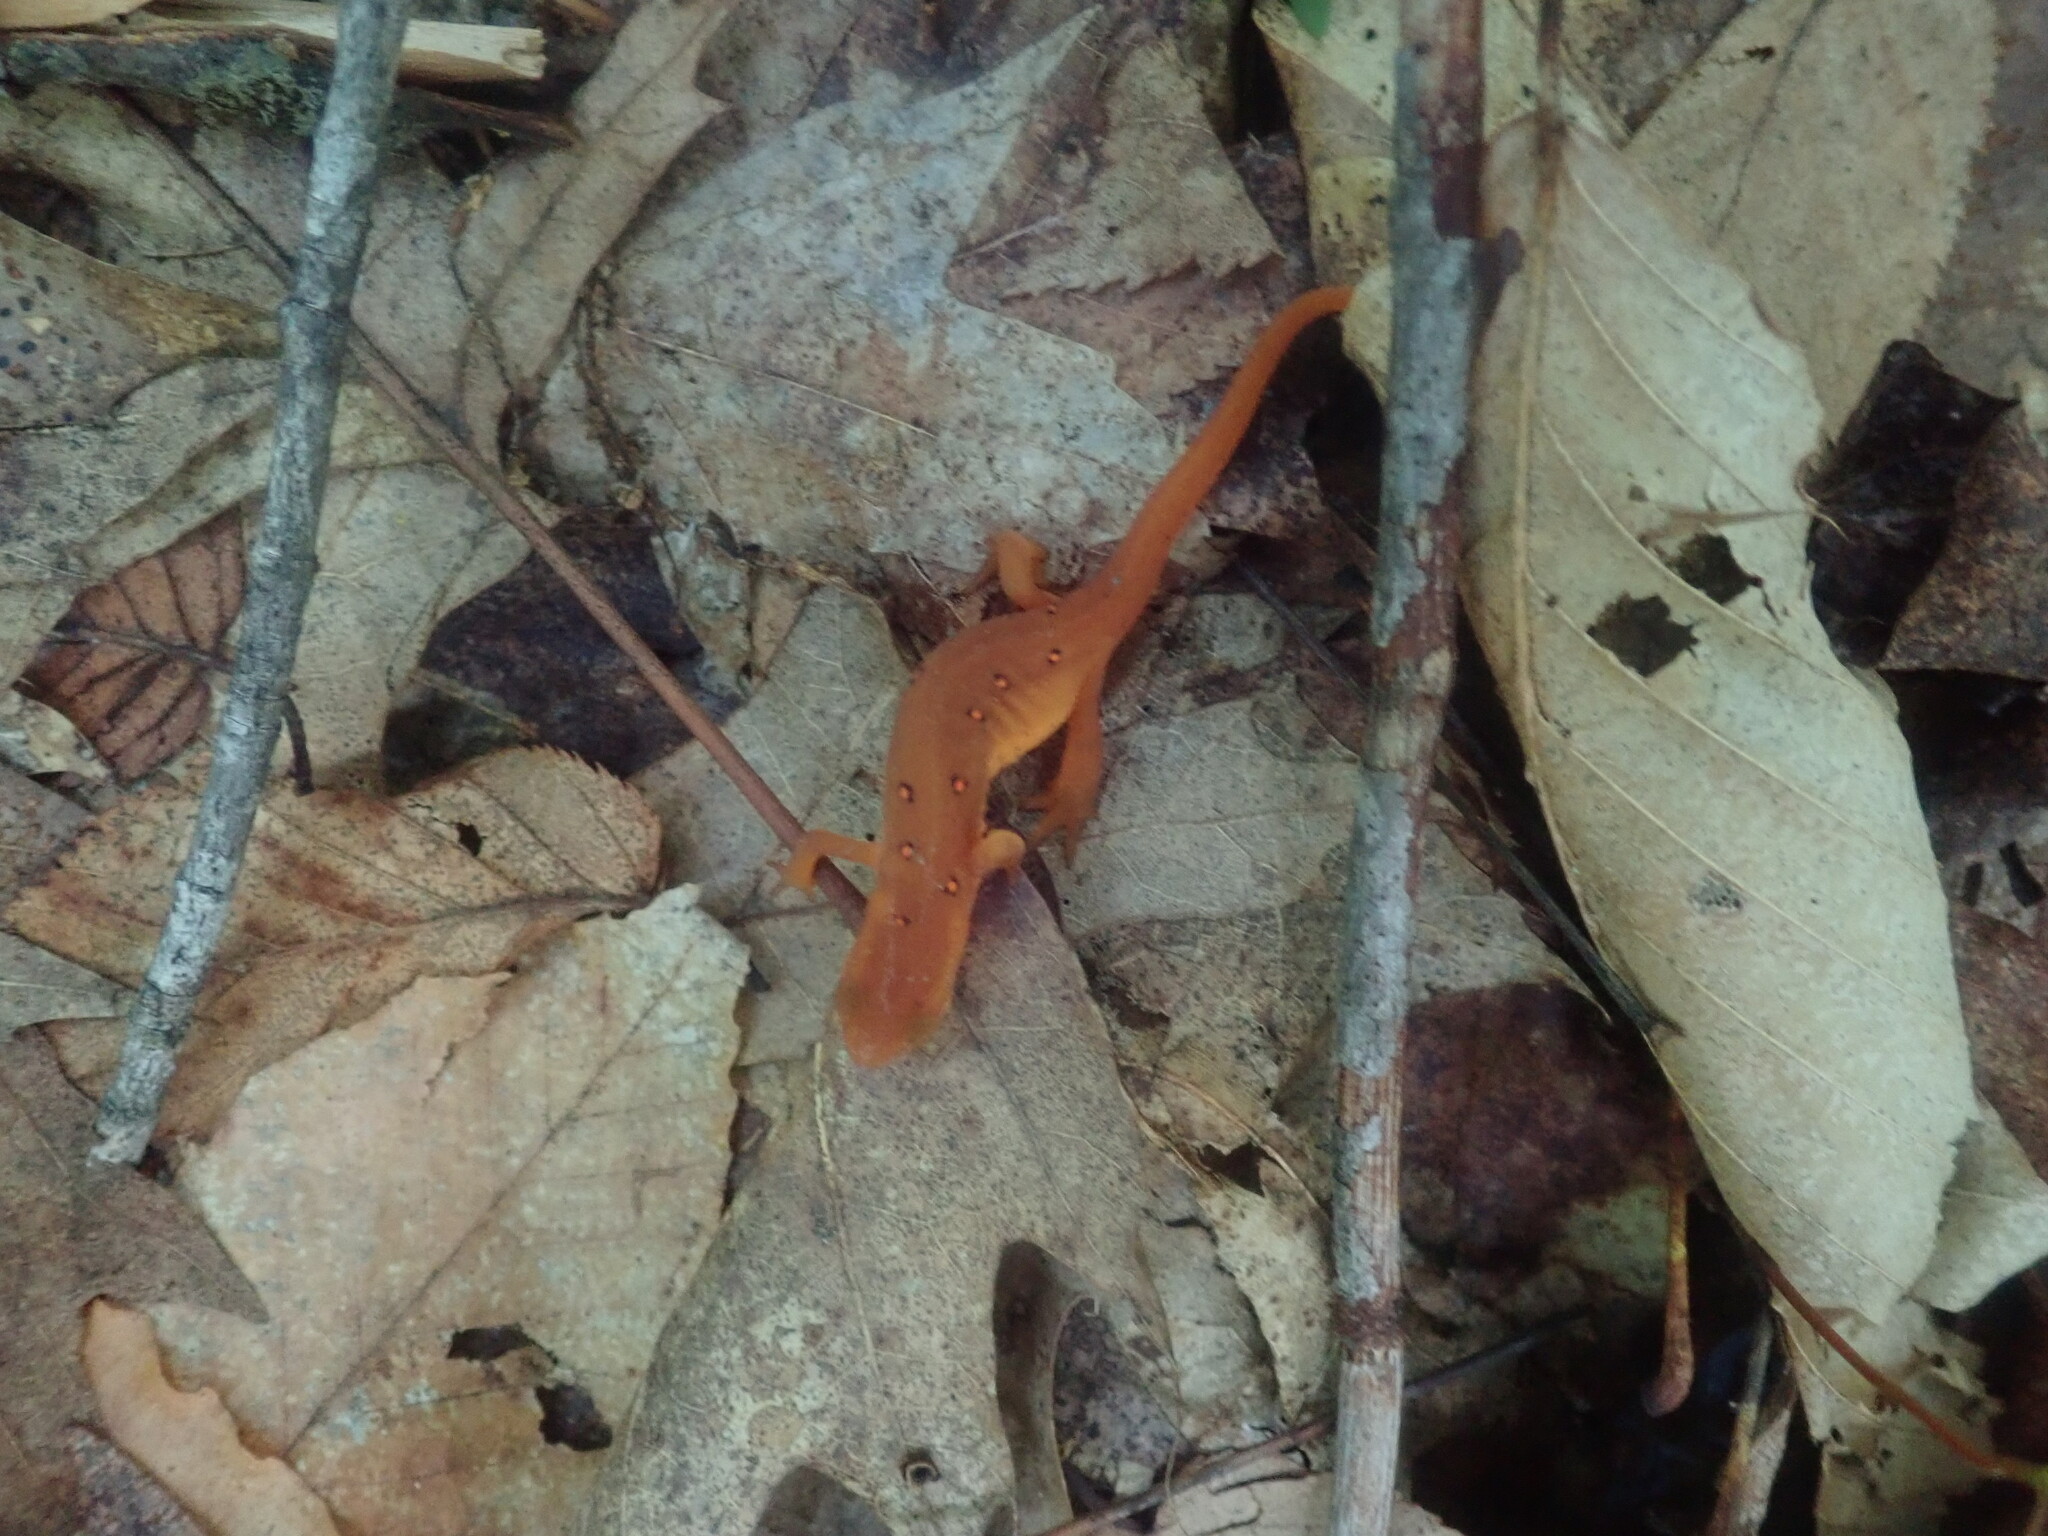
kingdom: Animalia
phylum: Chordata
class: Amphibia
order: Caudata
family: Salamandridae
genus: Notophthalmus
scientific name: Notophthalmus viridescens
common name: Eastern newt
